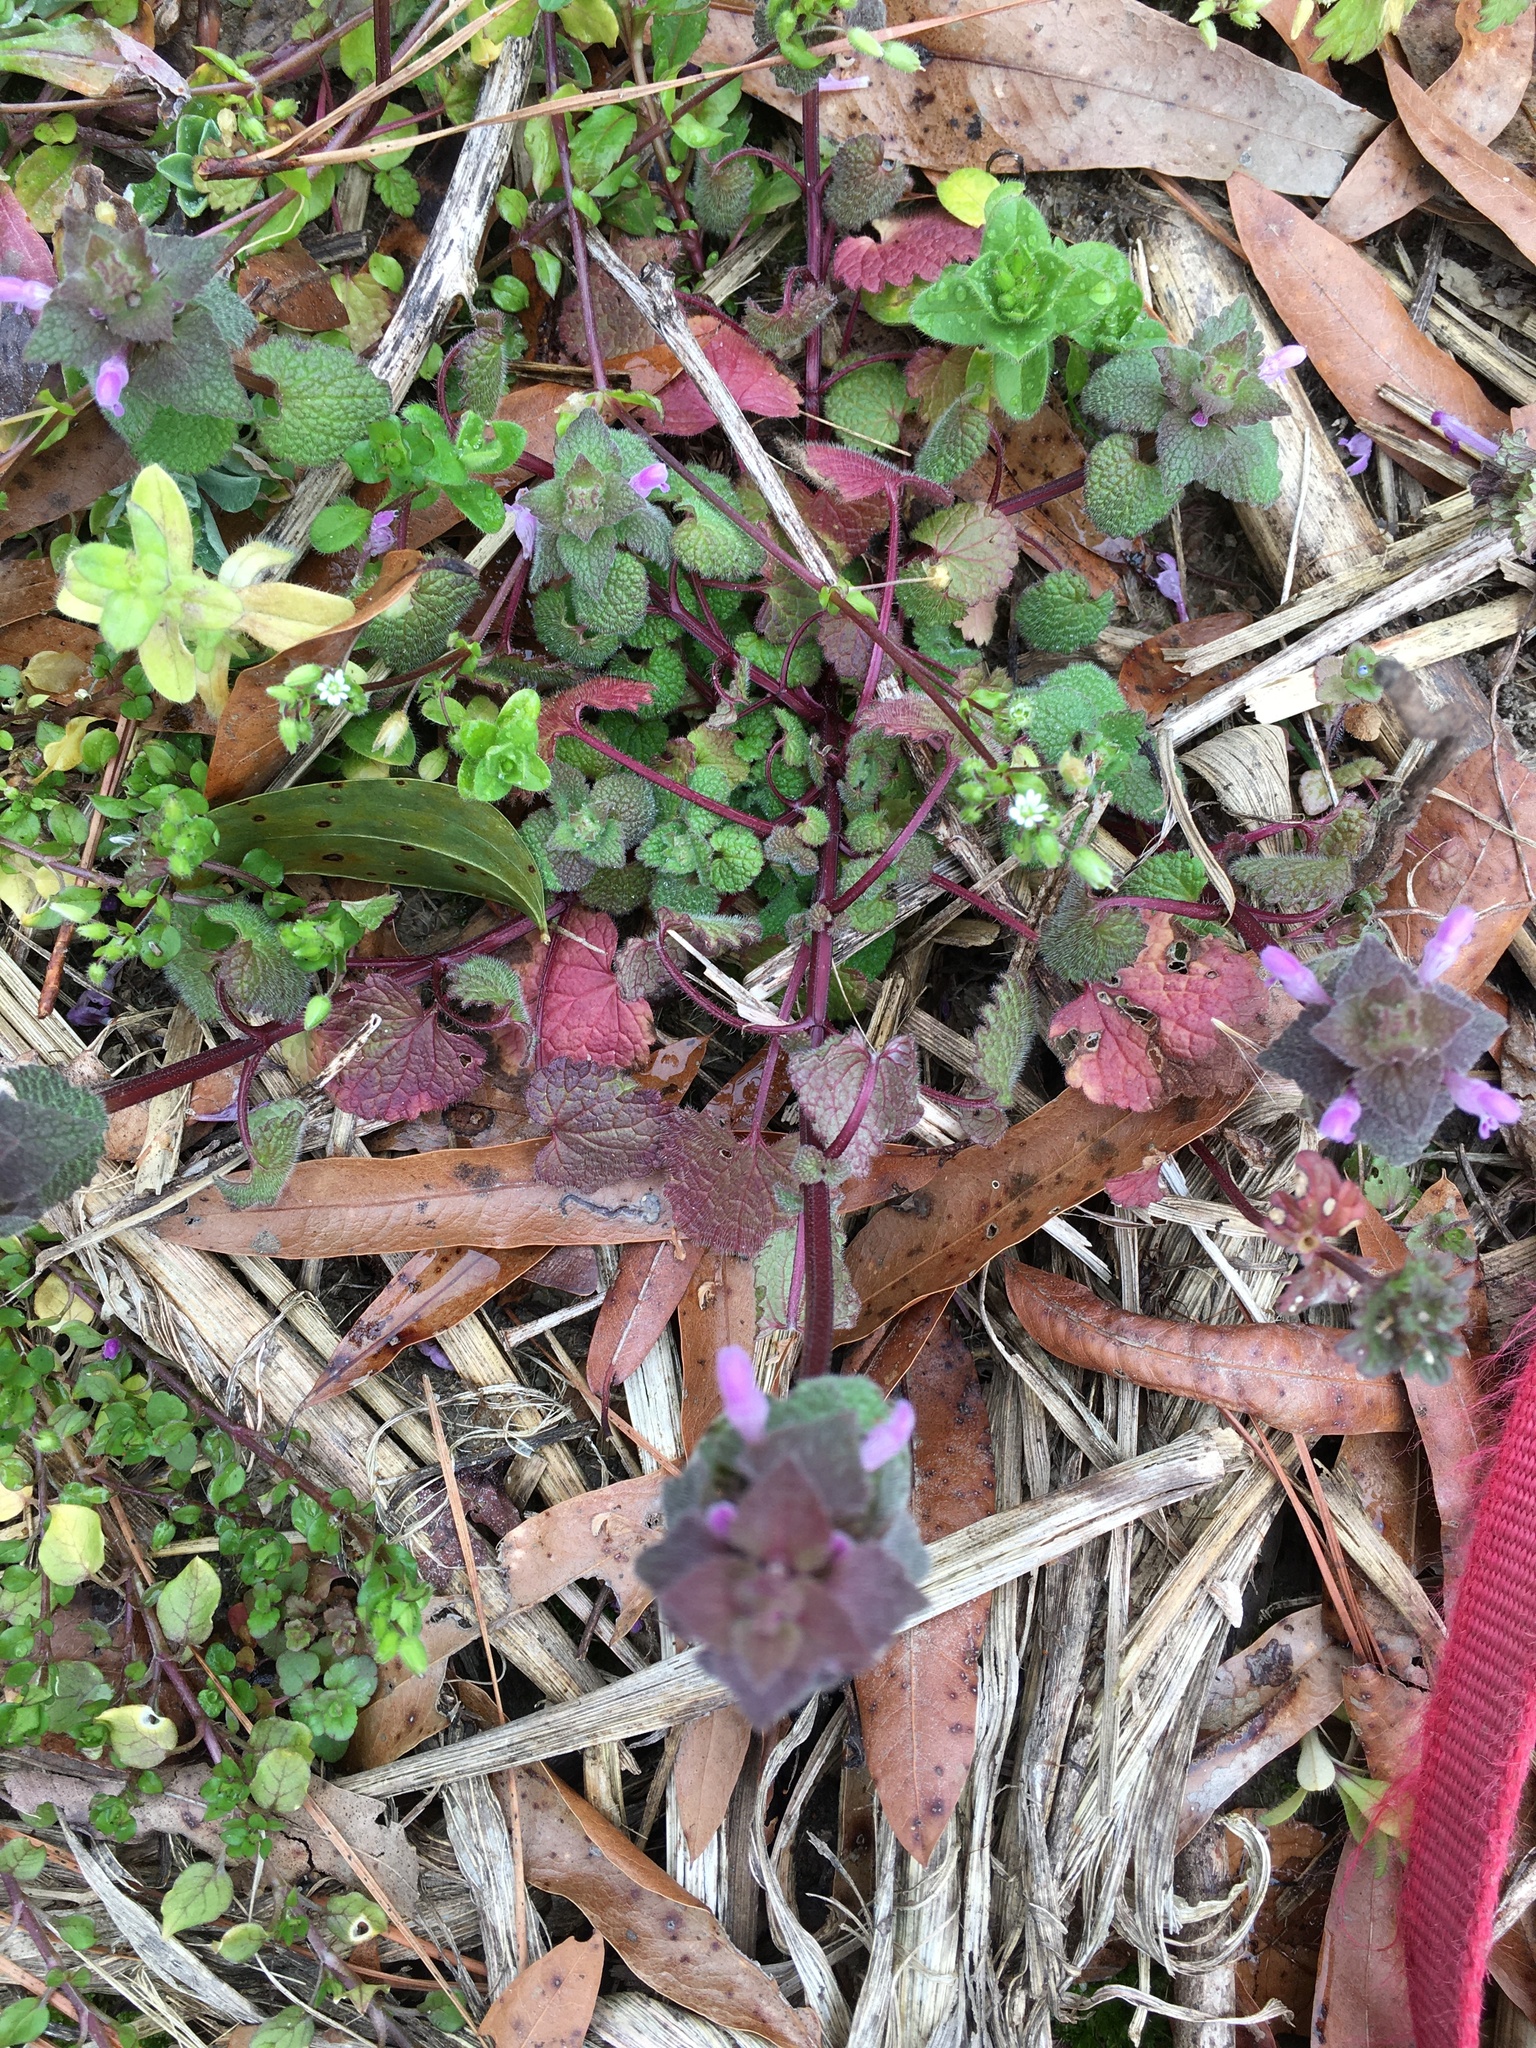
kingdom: Plantae
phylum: Tracheophyta
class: Magnoliopsida
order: Lamiales
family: Lamiaceae
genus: Lamium
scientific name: Lamium purpureum
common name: Red dead-nettle
